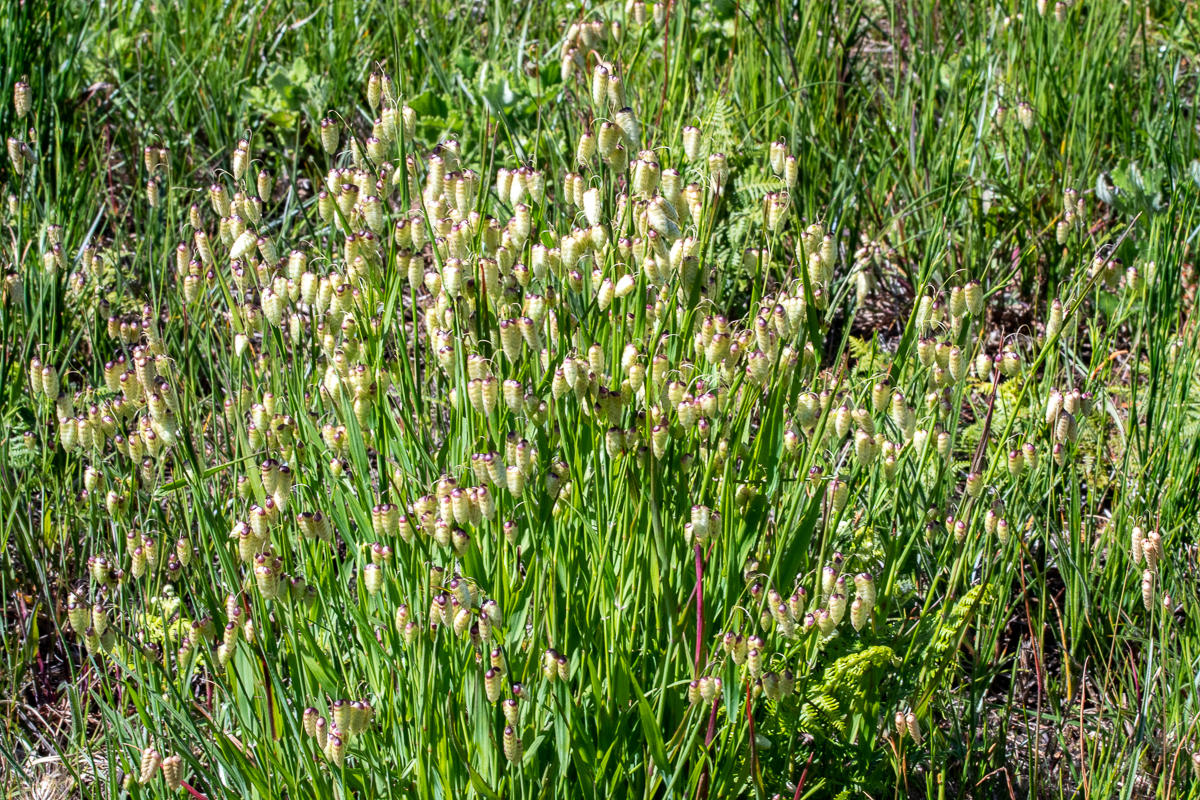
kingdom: Plantae
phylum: Tracheophyta
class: Liliopsida
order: Poales
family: Poaceae
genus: Briza
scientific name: Briza maxima
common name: Big quakinggrass
